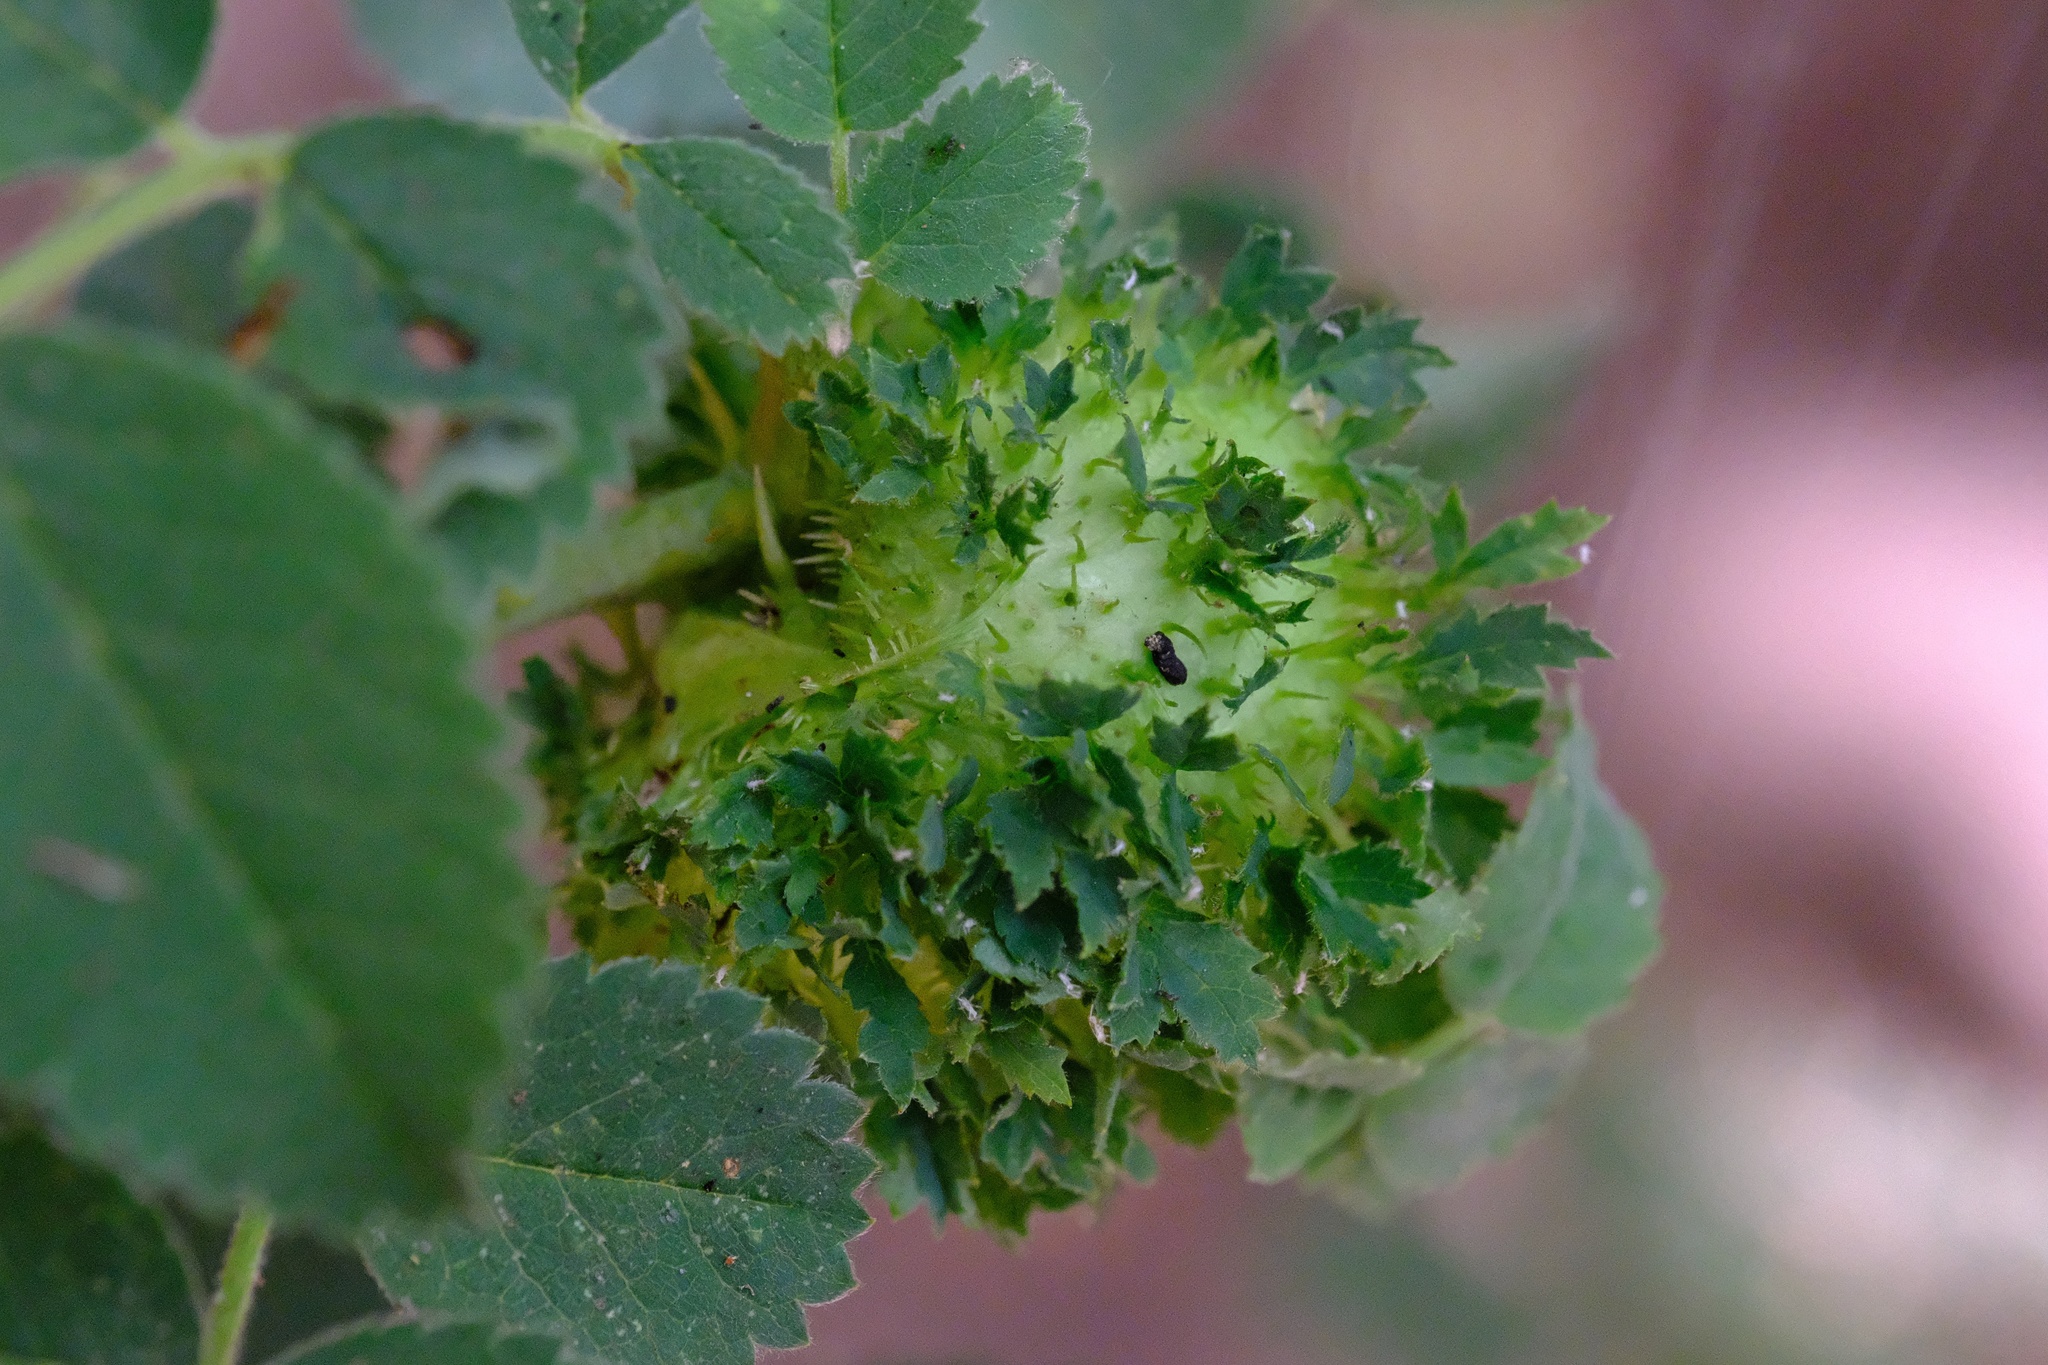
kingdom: Animalia
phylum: Arthropoda
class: Insecta
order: Hymenoptera
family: Cynipidae
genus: Diplolepis
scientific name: Diplolepis californica
